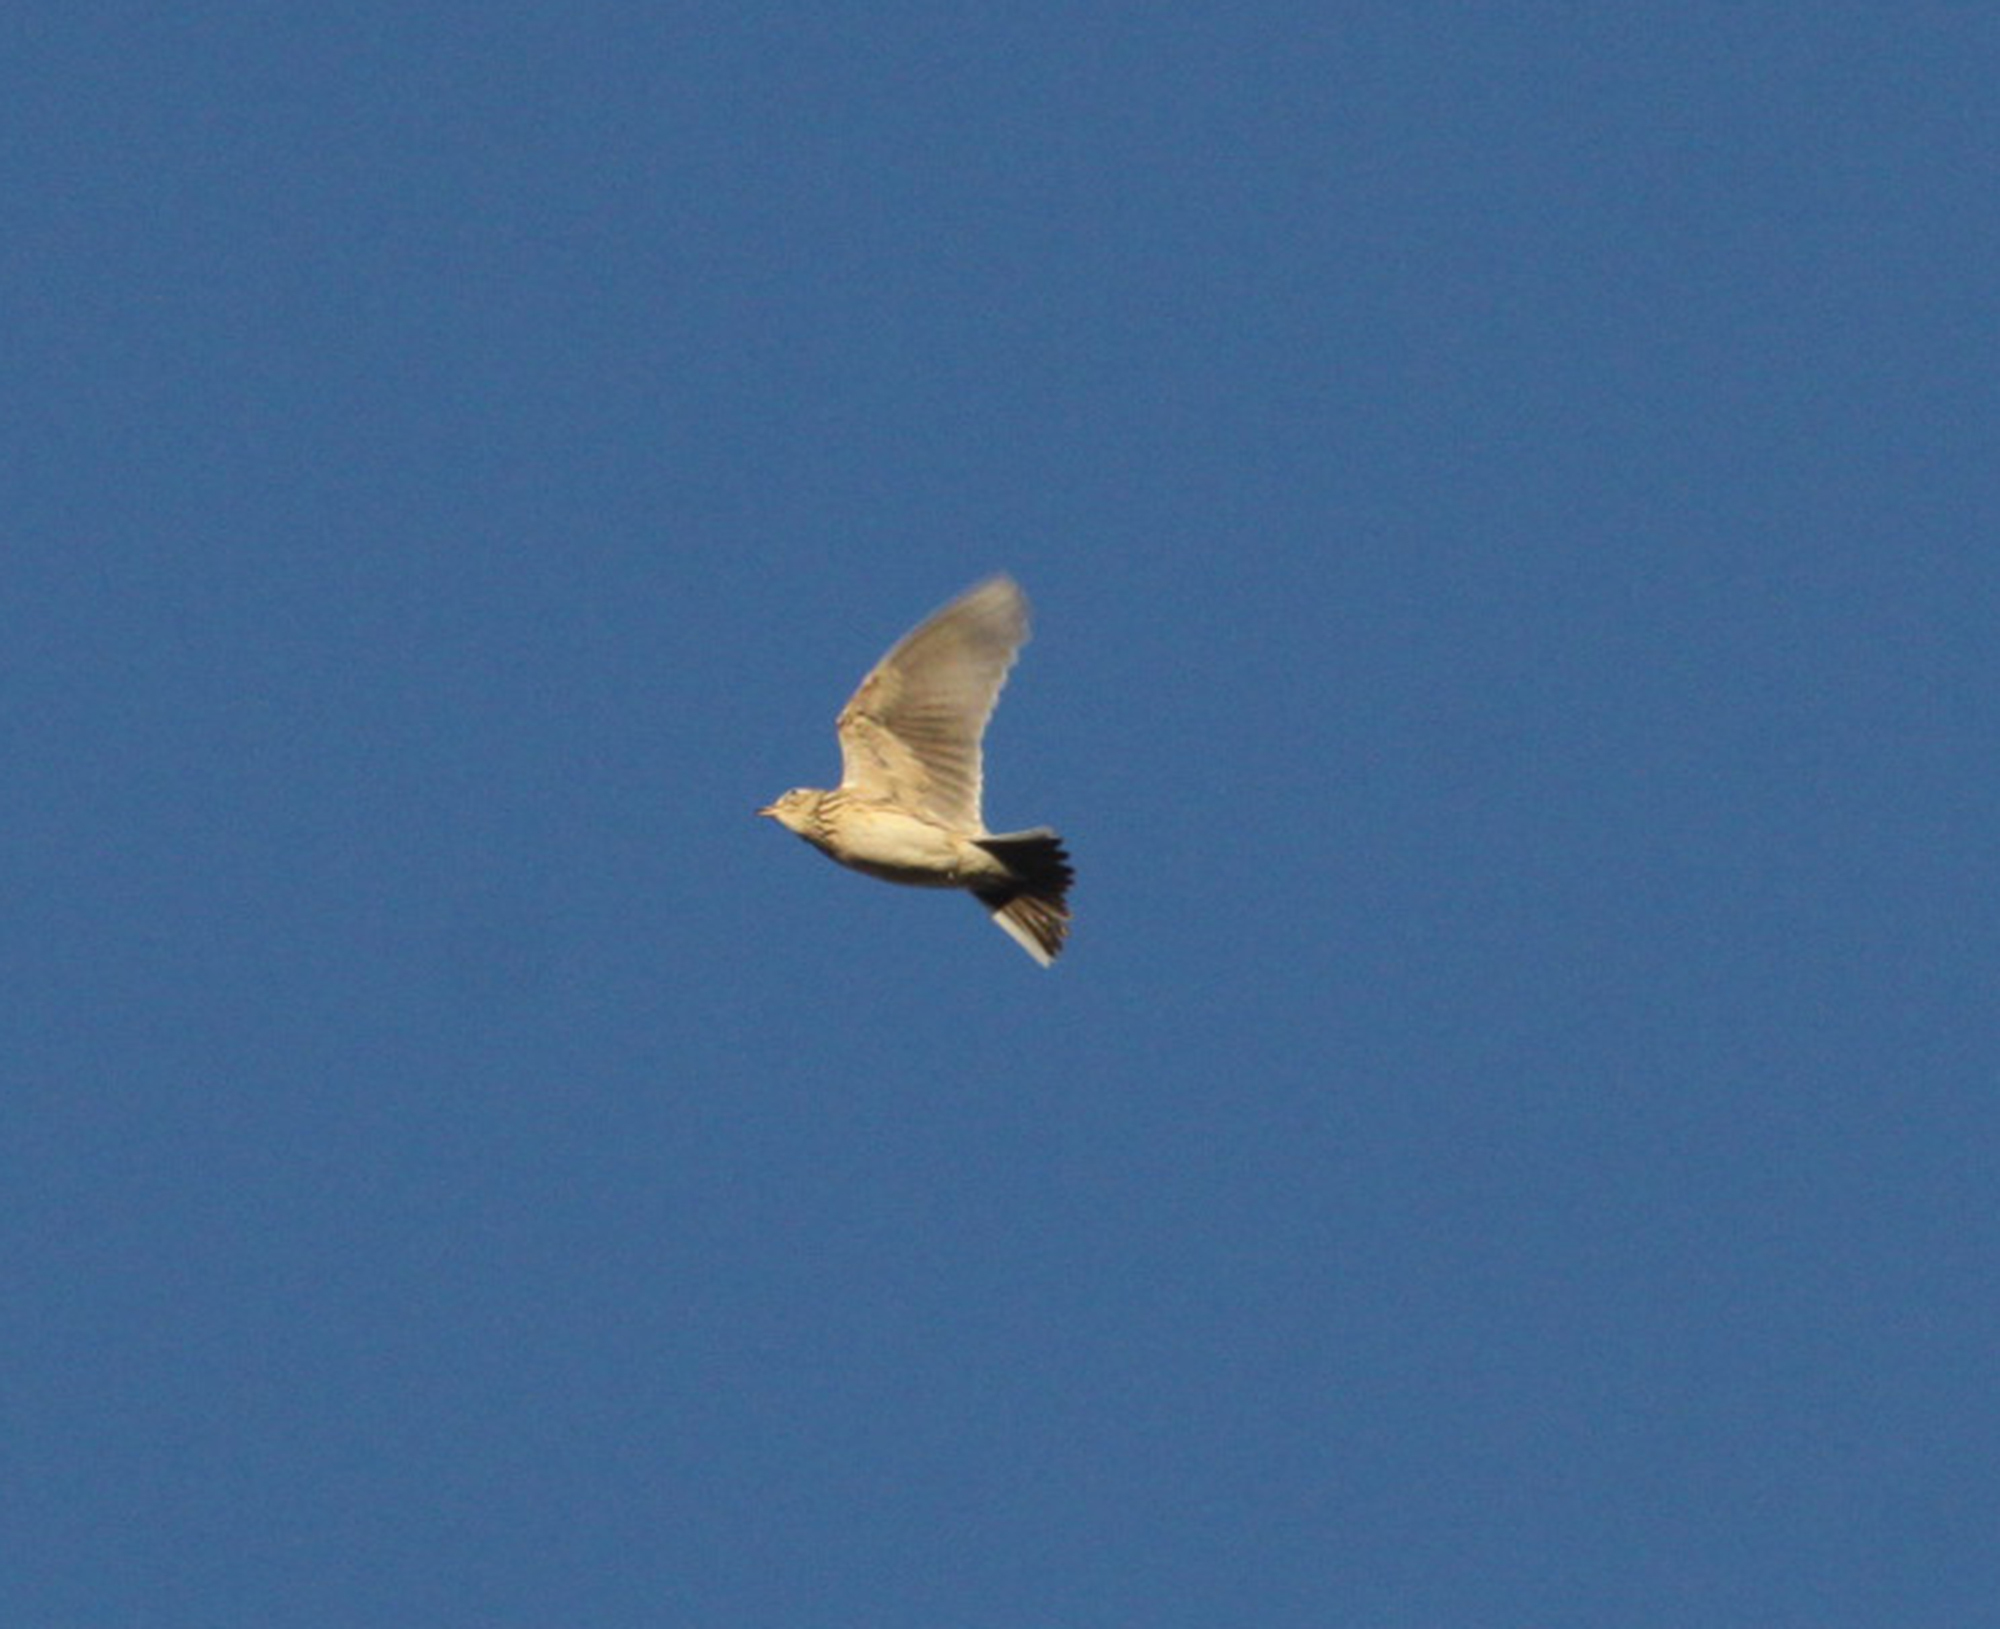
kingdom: Animalia
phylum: Chordata
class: Aves
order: Passeriformes
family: Alaudidae
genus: Alauda
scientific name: Alauda arvensis
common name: Eurasian skylark
